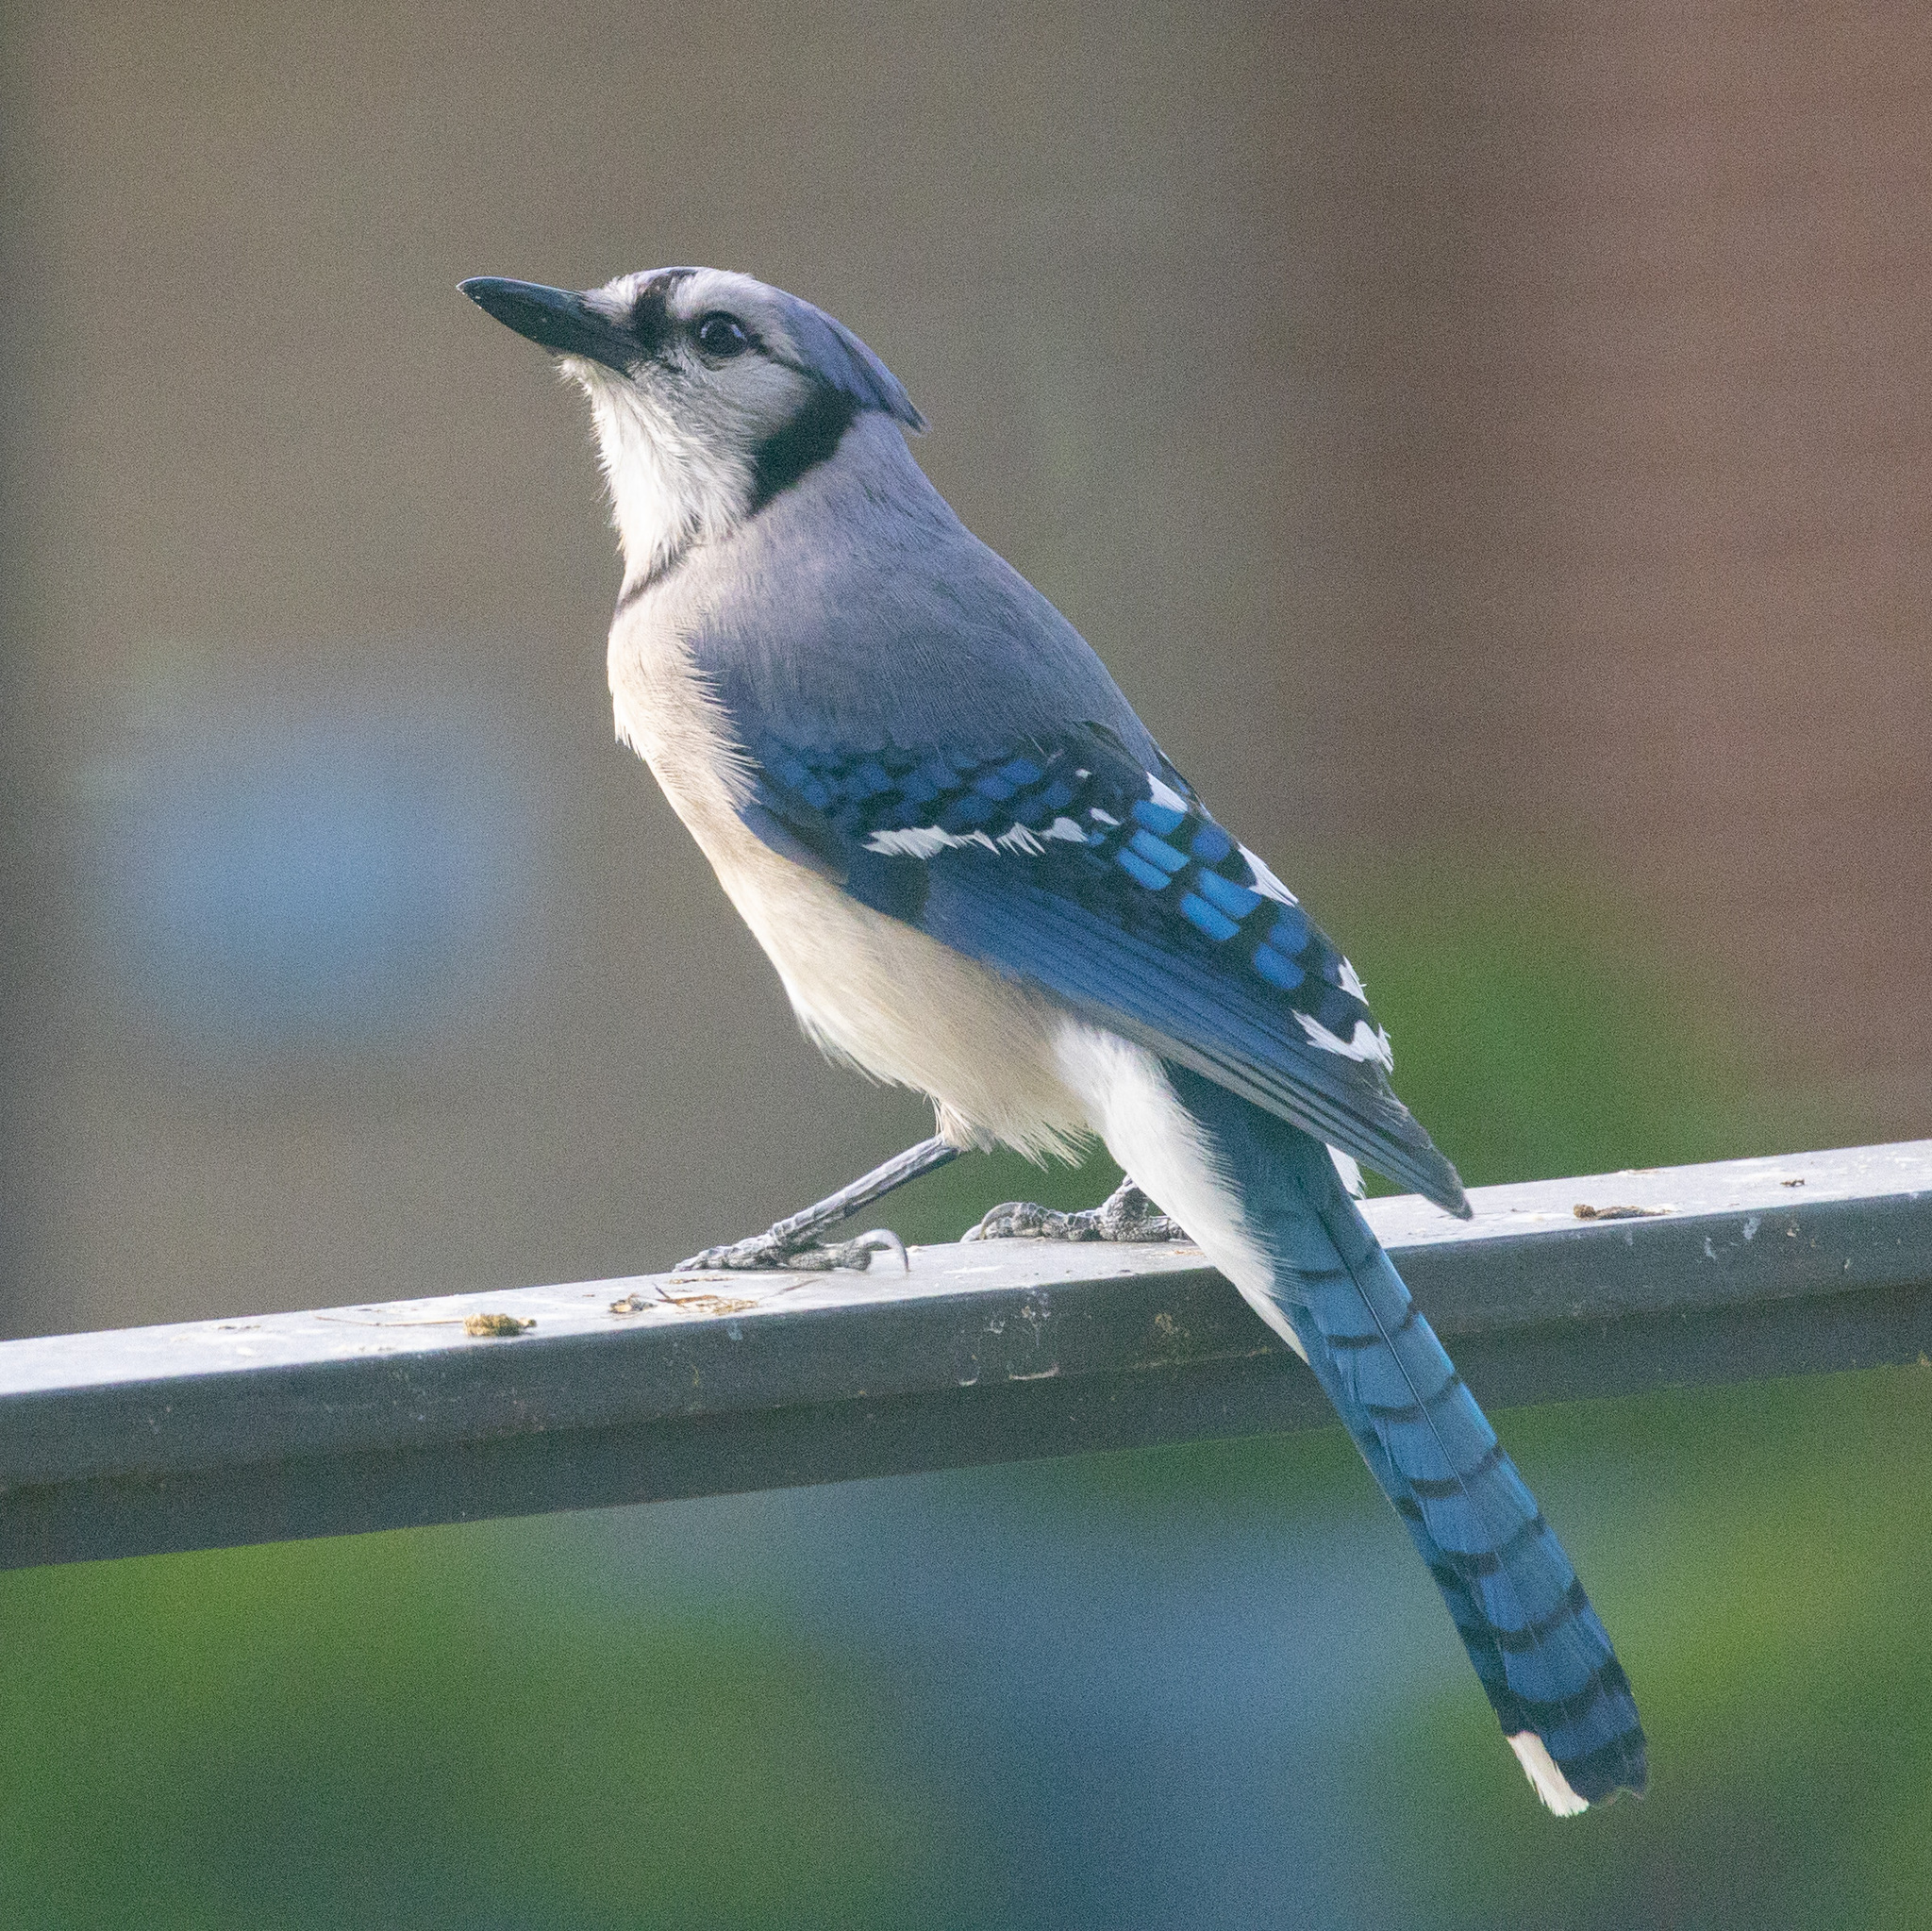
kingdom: Animalia
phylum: Chordata
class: Aves
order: Passeriformes
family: Corvidae
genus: Cyanocitta
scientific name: Cyanocitta cristata
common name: Blue jay
